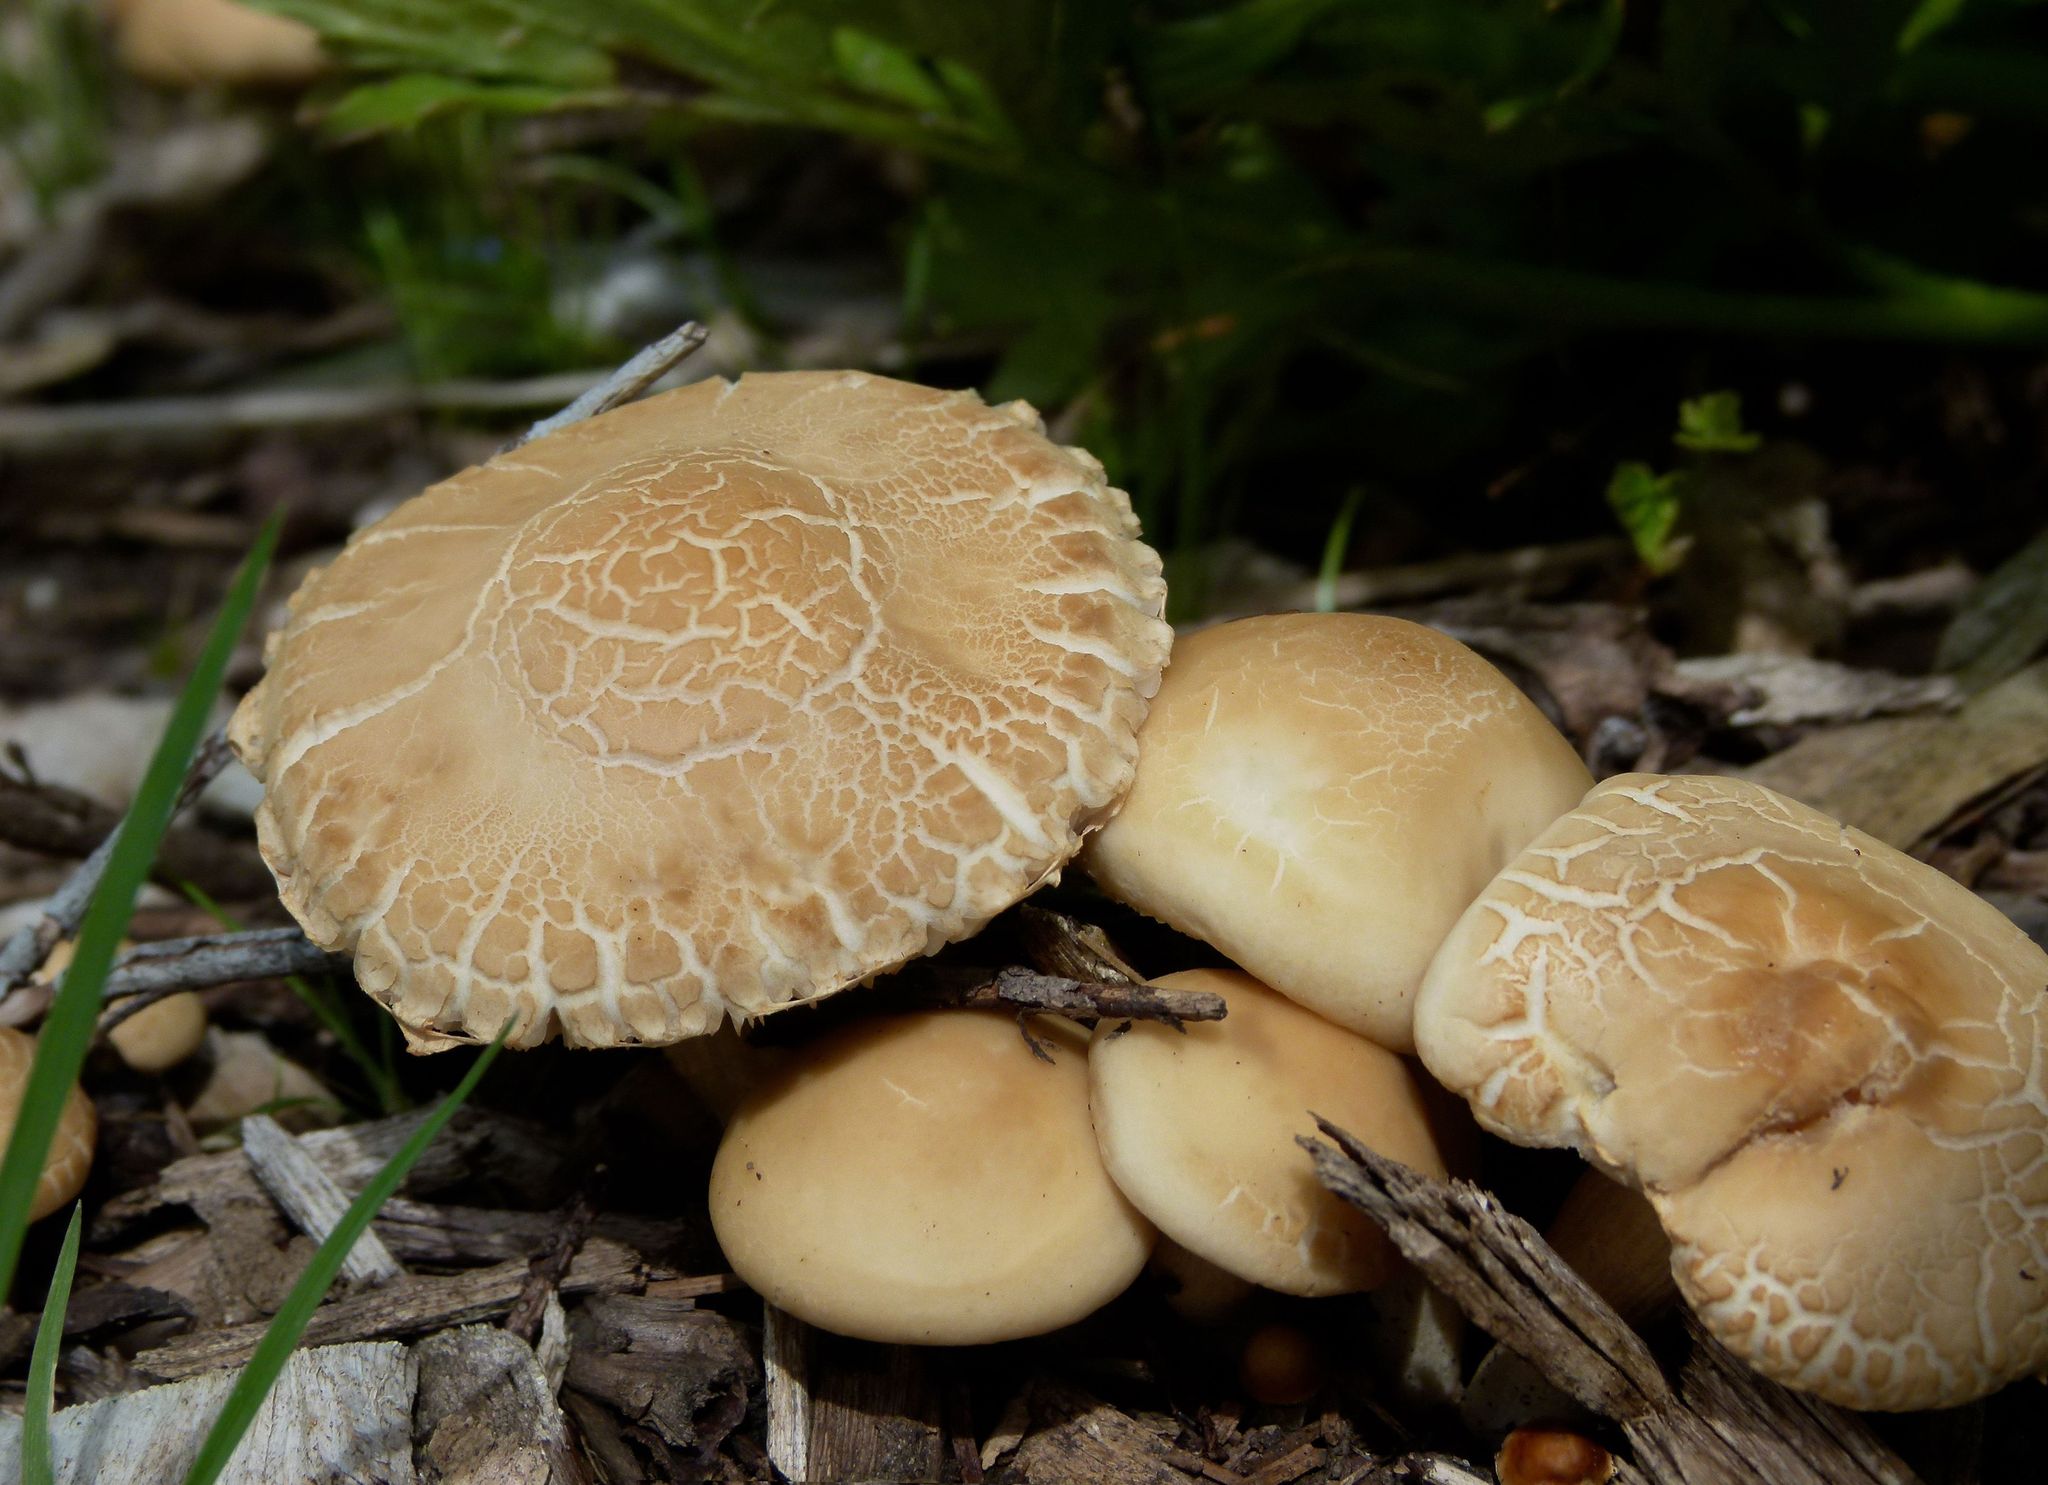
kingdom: Fungi
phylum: Basidiomycota
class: Agaricomycetes
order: Agaricales
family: Strophariaceae
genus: Agrocybe
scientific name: Agrocybe praecox
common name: Spring fieldcap
